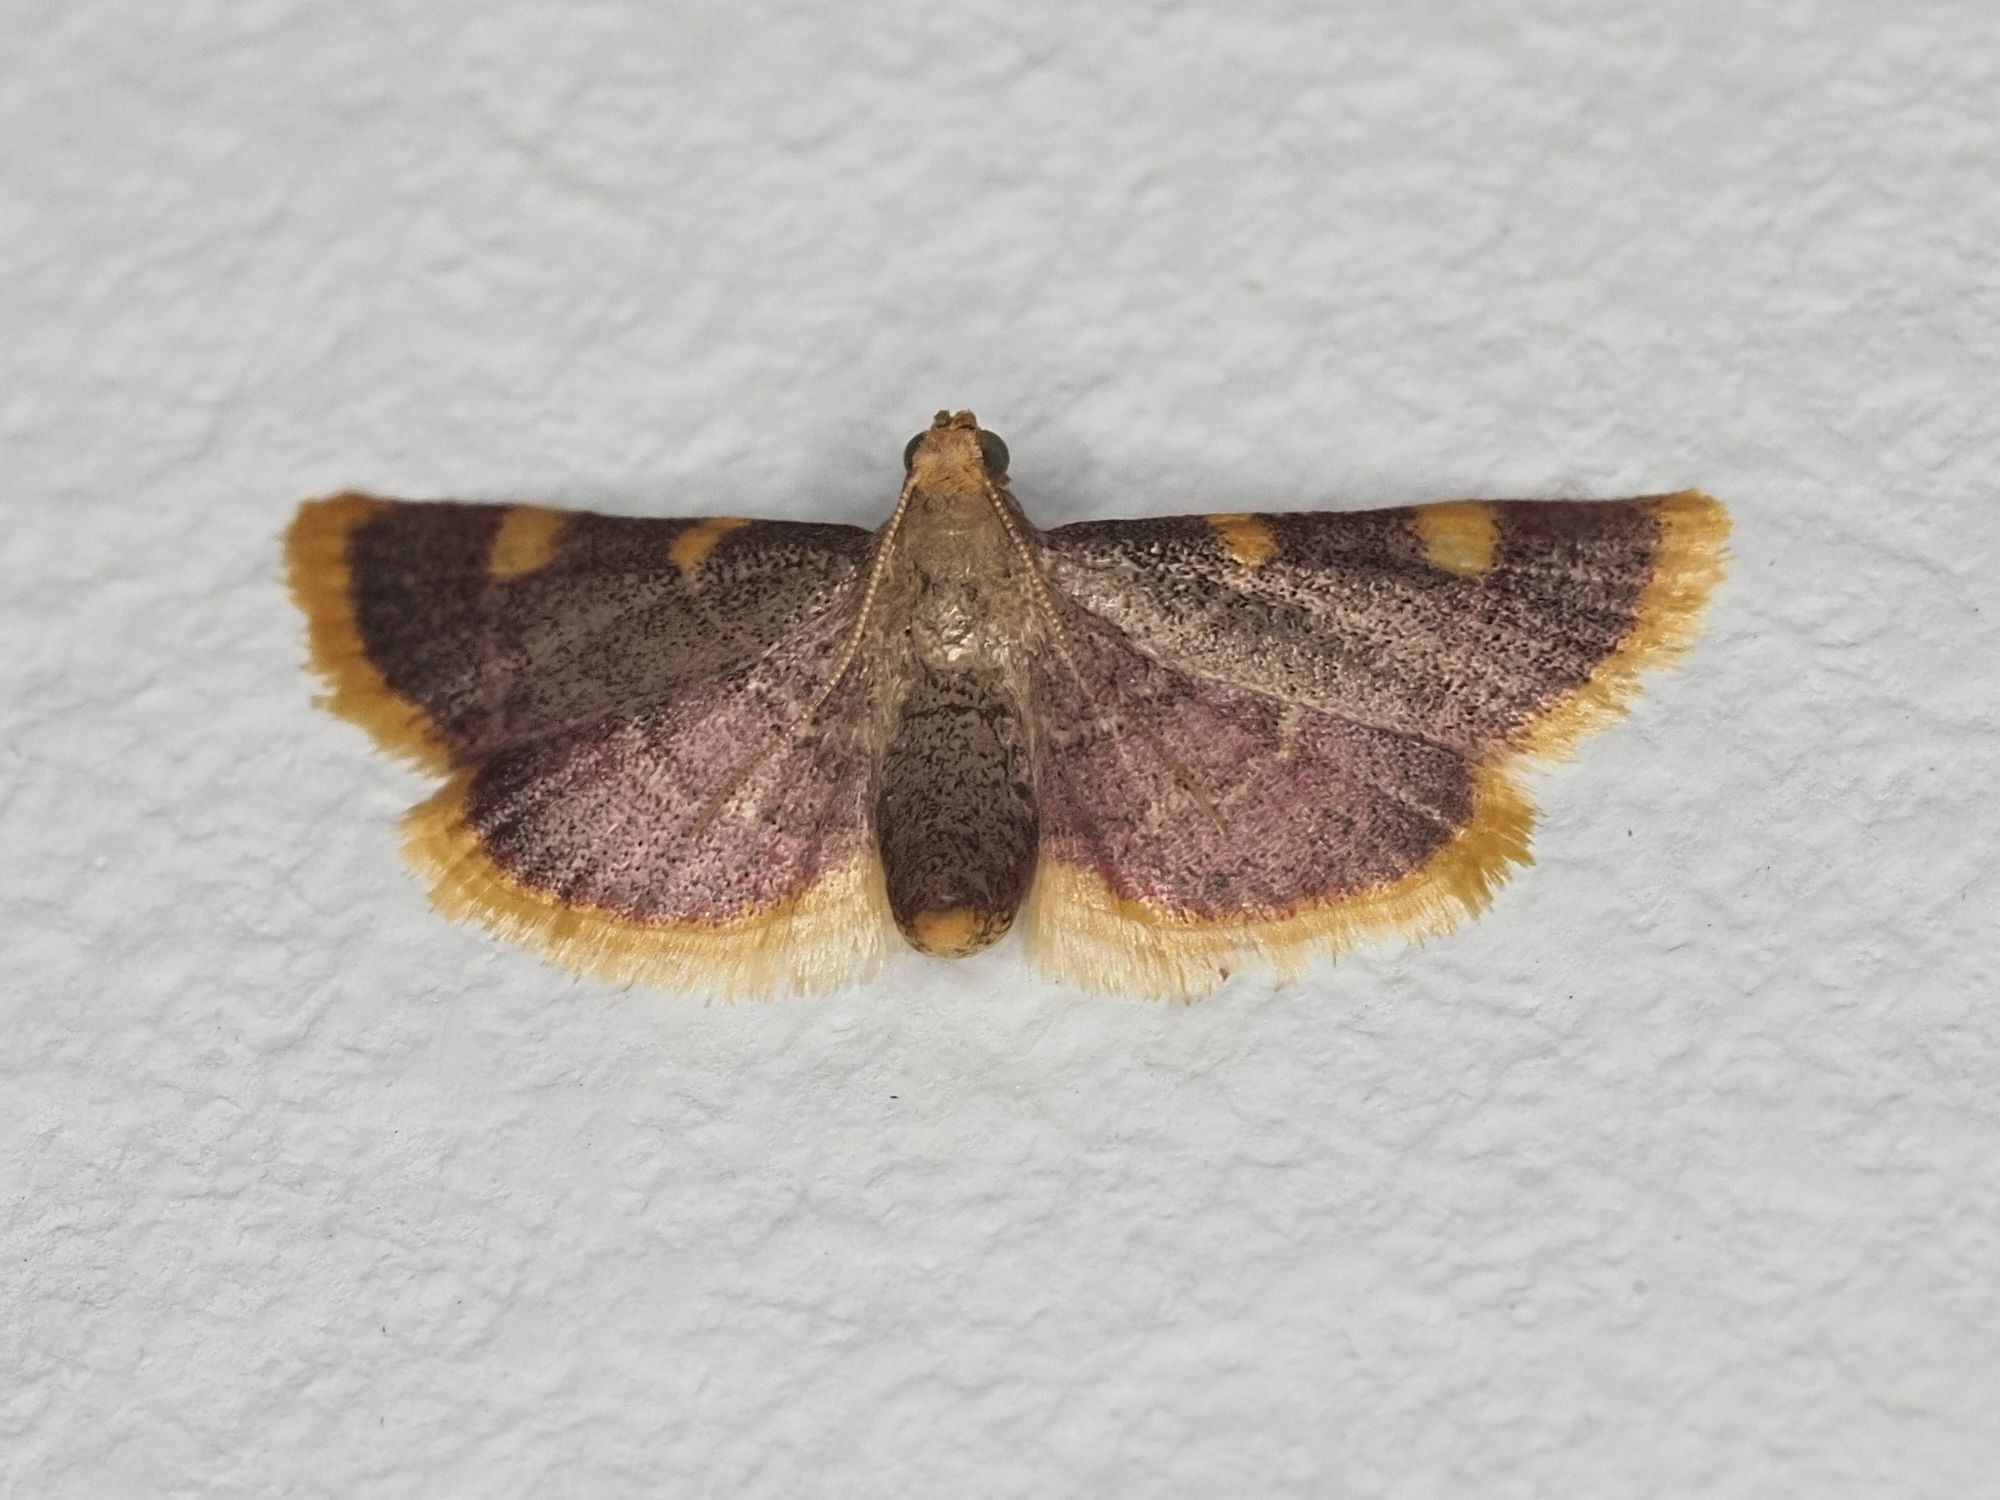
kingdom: Animalia
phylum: Arthropoda
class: Insecta
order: Lepidoptera
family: Pyralidae
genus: Hypsopygia
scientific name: Hypsopygia costalis
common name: Gold triangle
